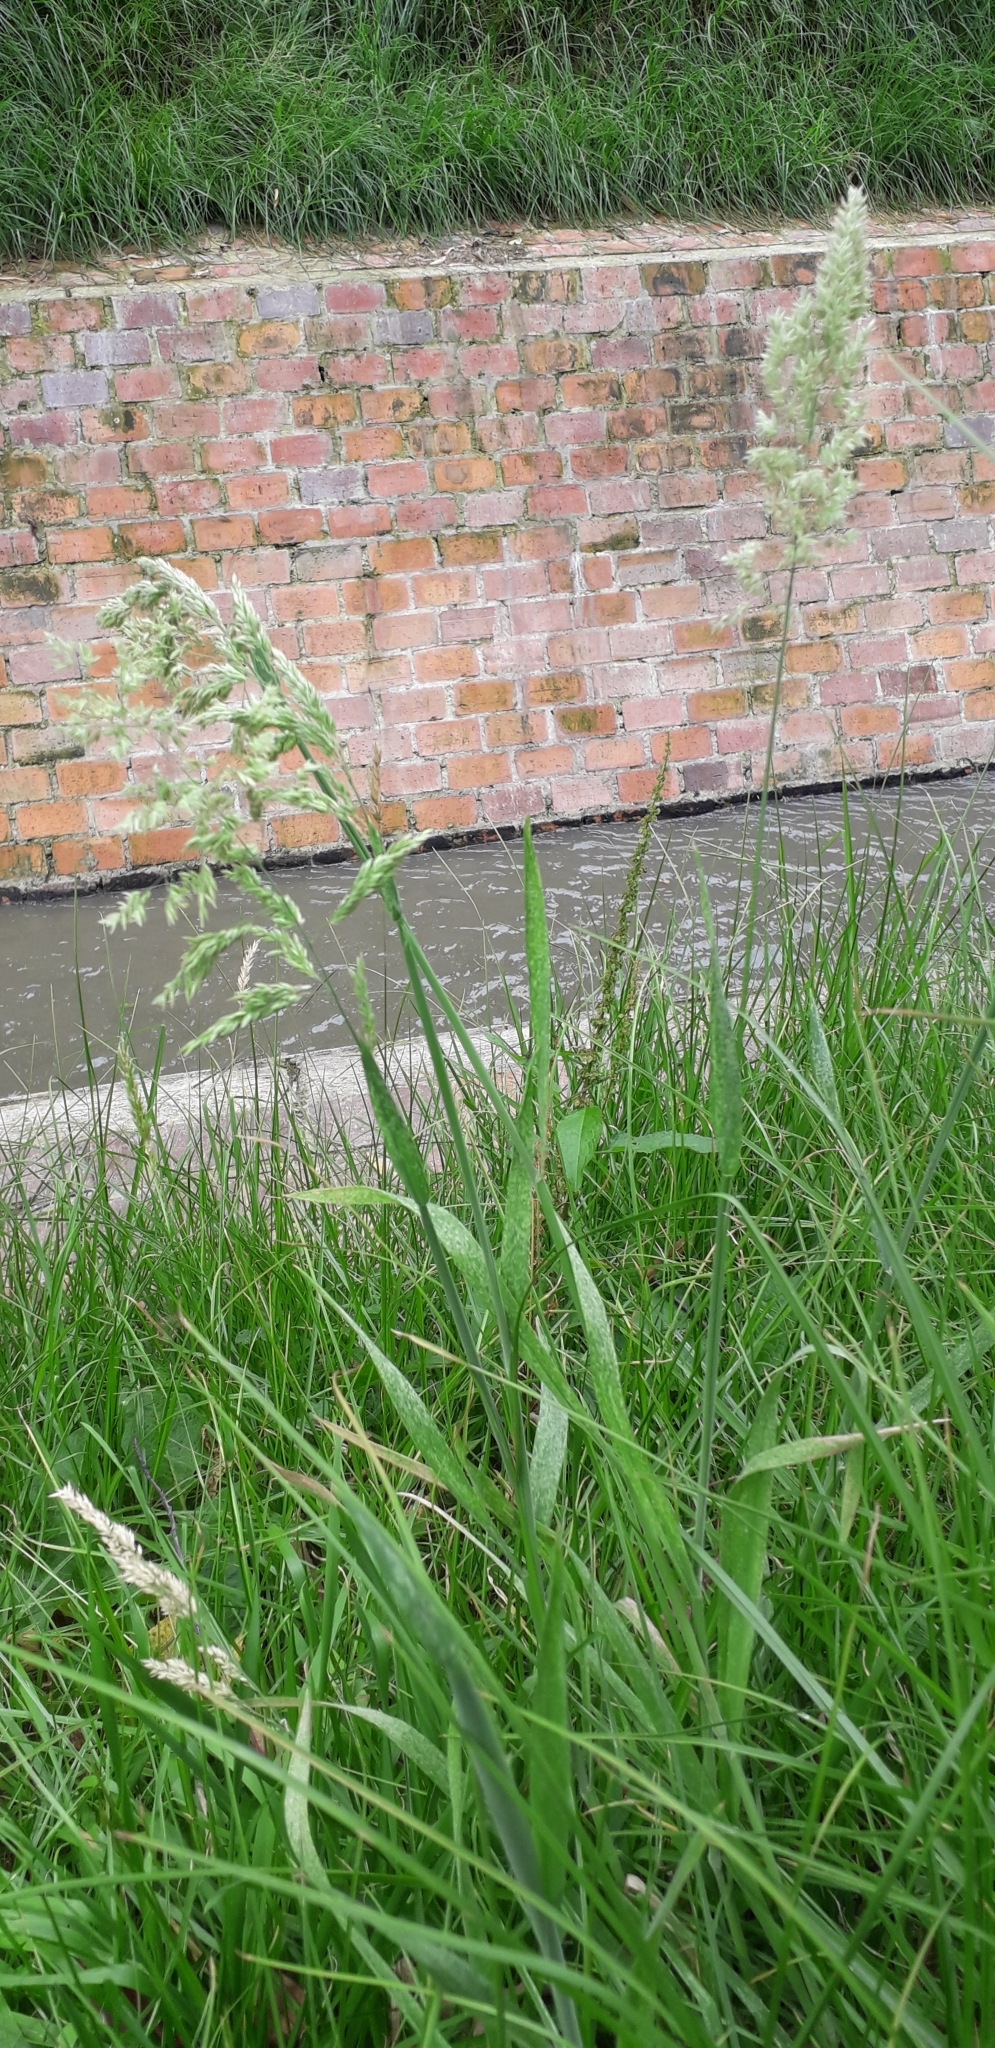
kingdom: Plantae
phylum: Tracheophyta
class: Liliopsida
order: Poales
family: Poaceae
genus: Holcus
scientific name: Holcus lanatus
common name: Yorkshire-fog
